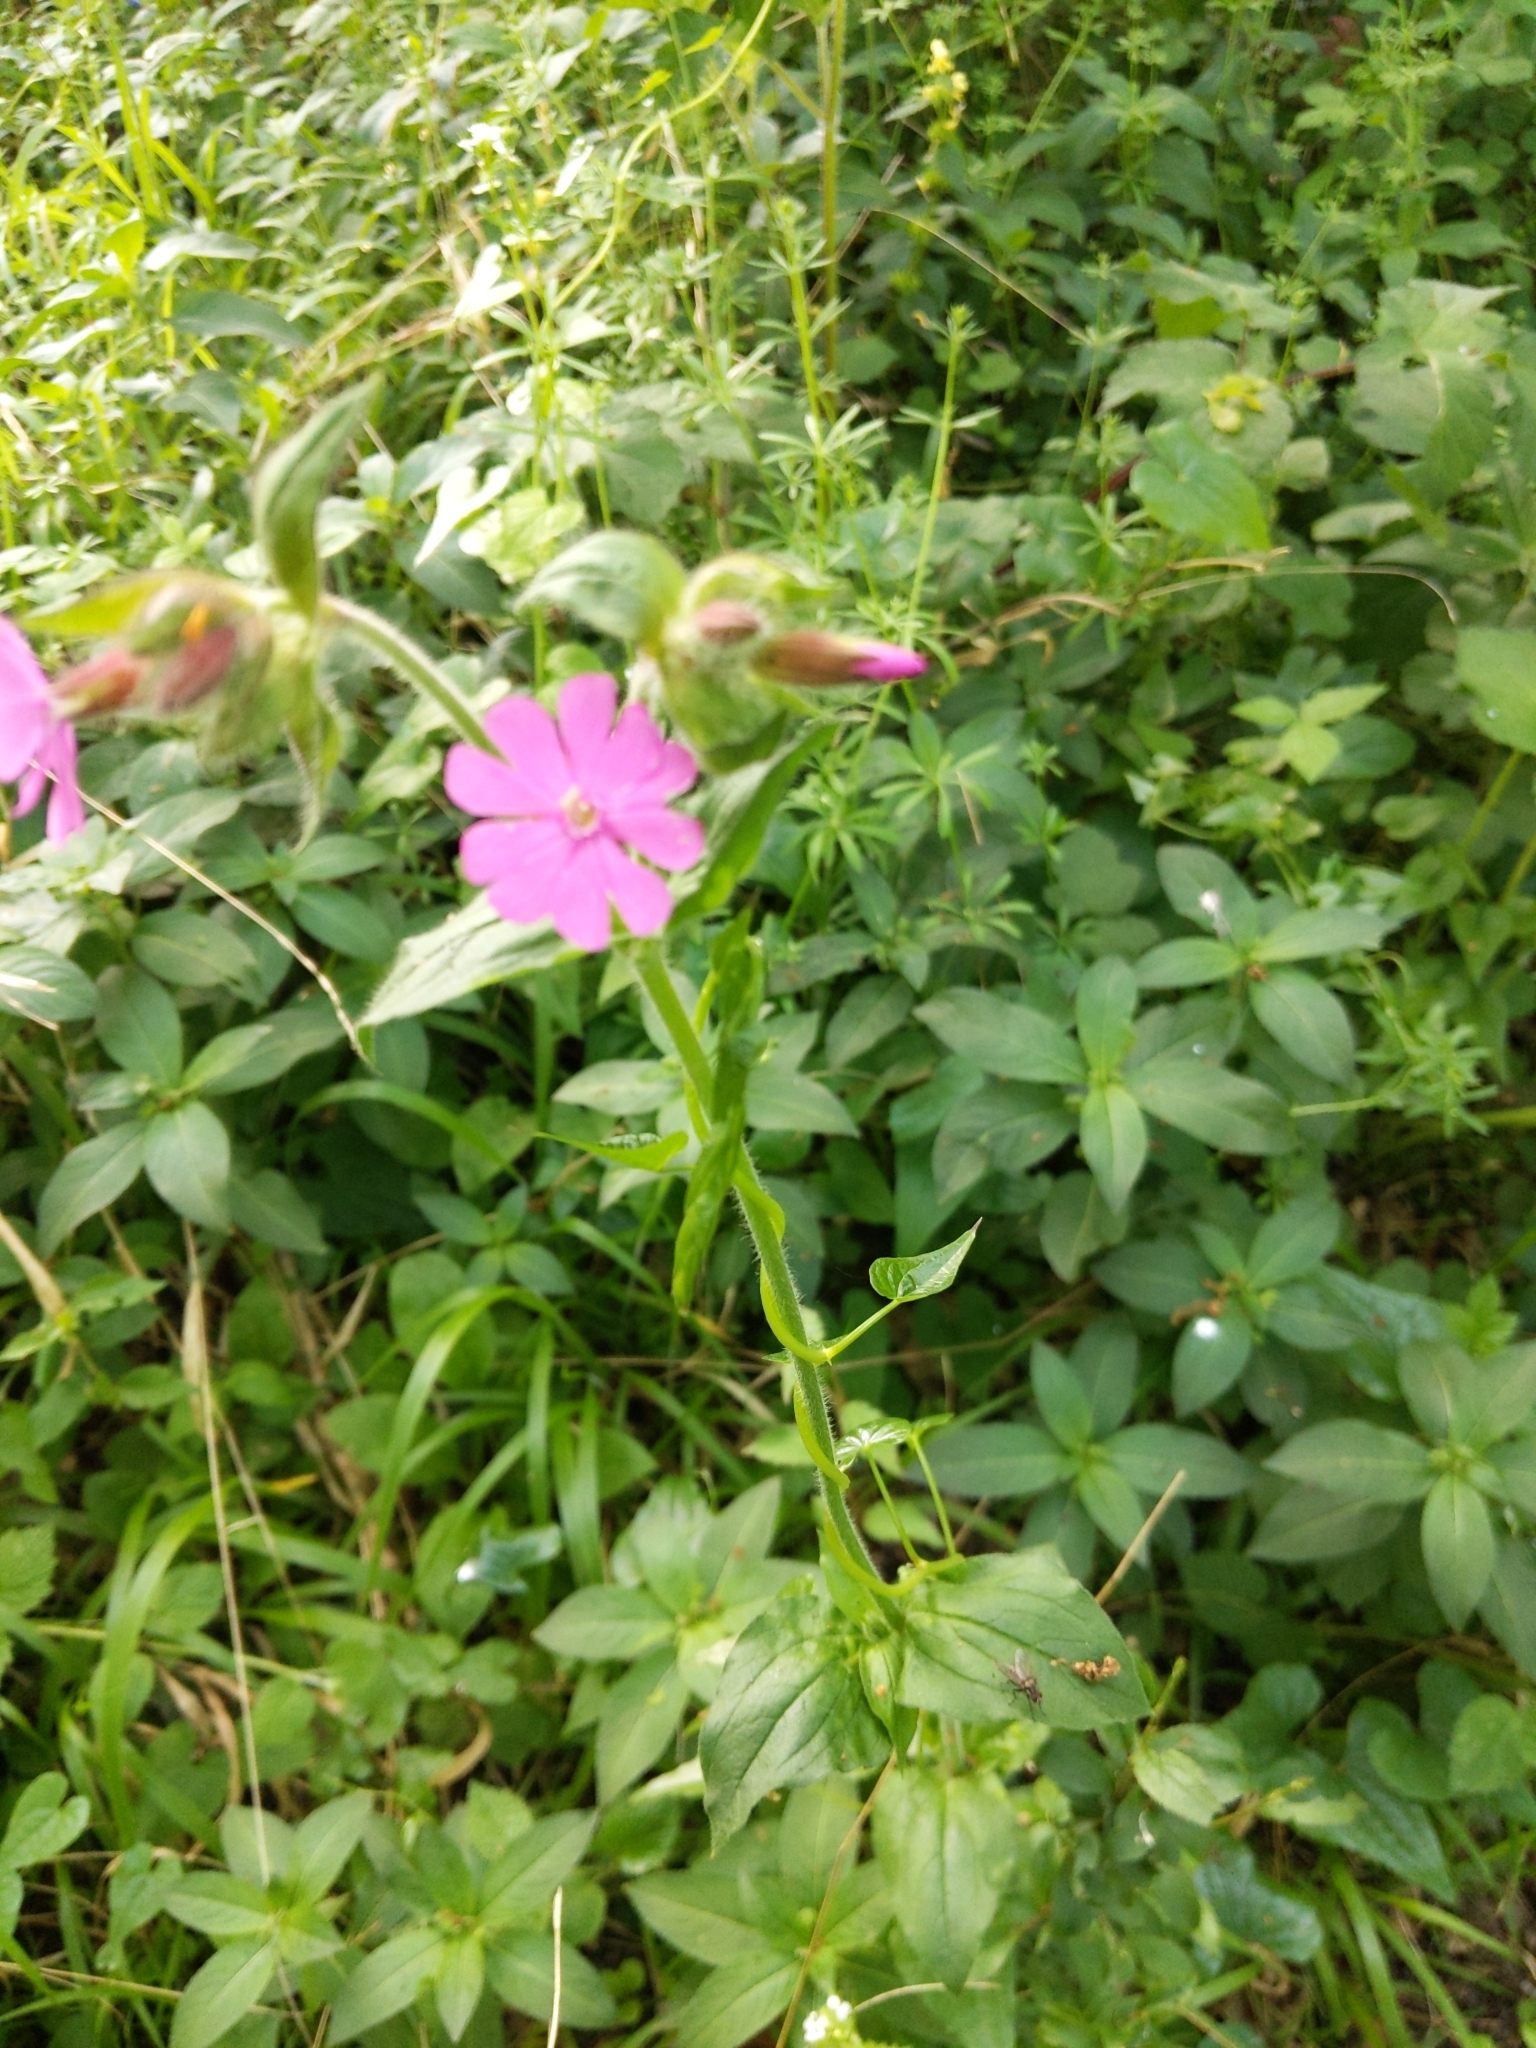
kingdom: Plantae
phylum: Tracheophyta
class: Magnoliopsida
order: Caryophyllales
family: Caryophyllaceae
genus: Silene
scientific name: Silene dioica
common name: Red campion
